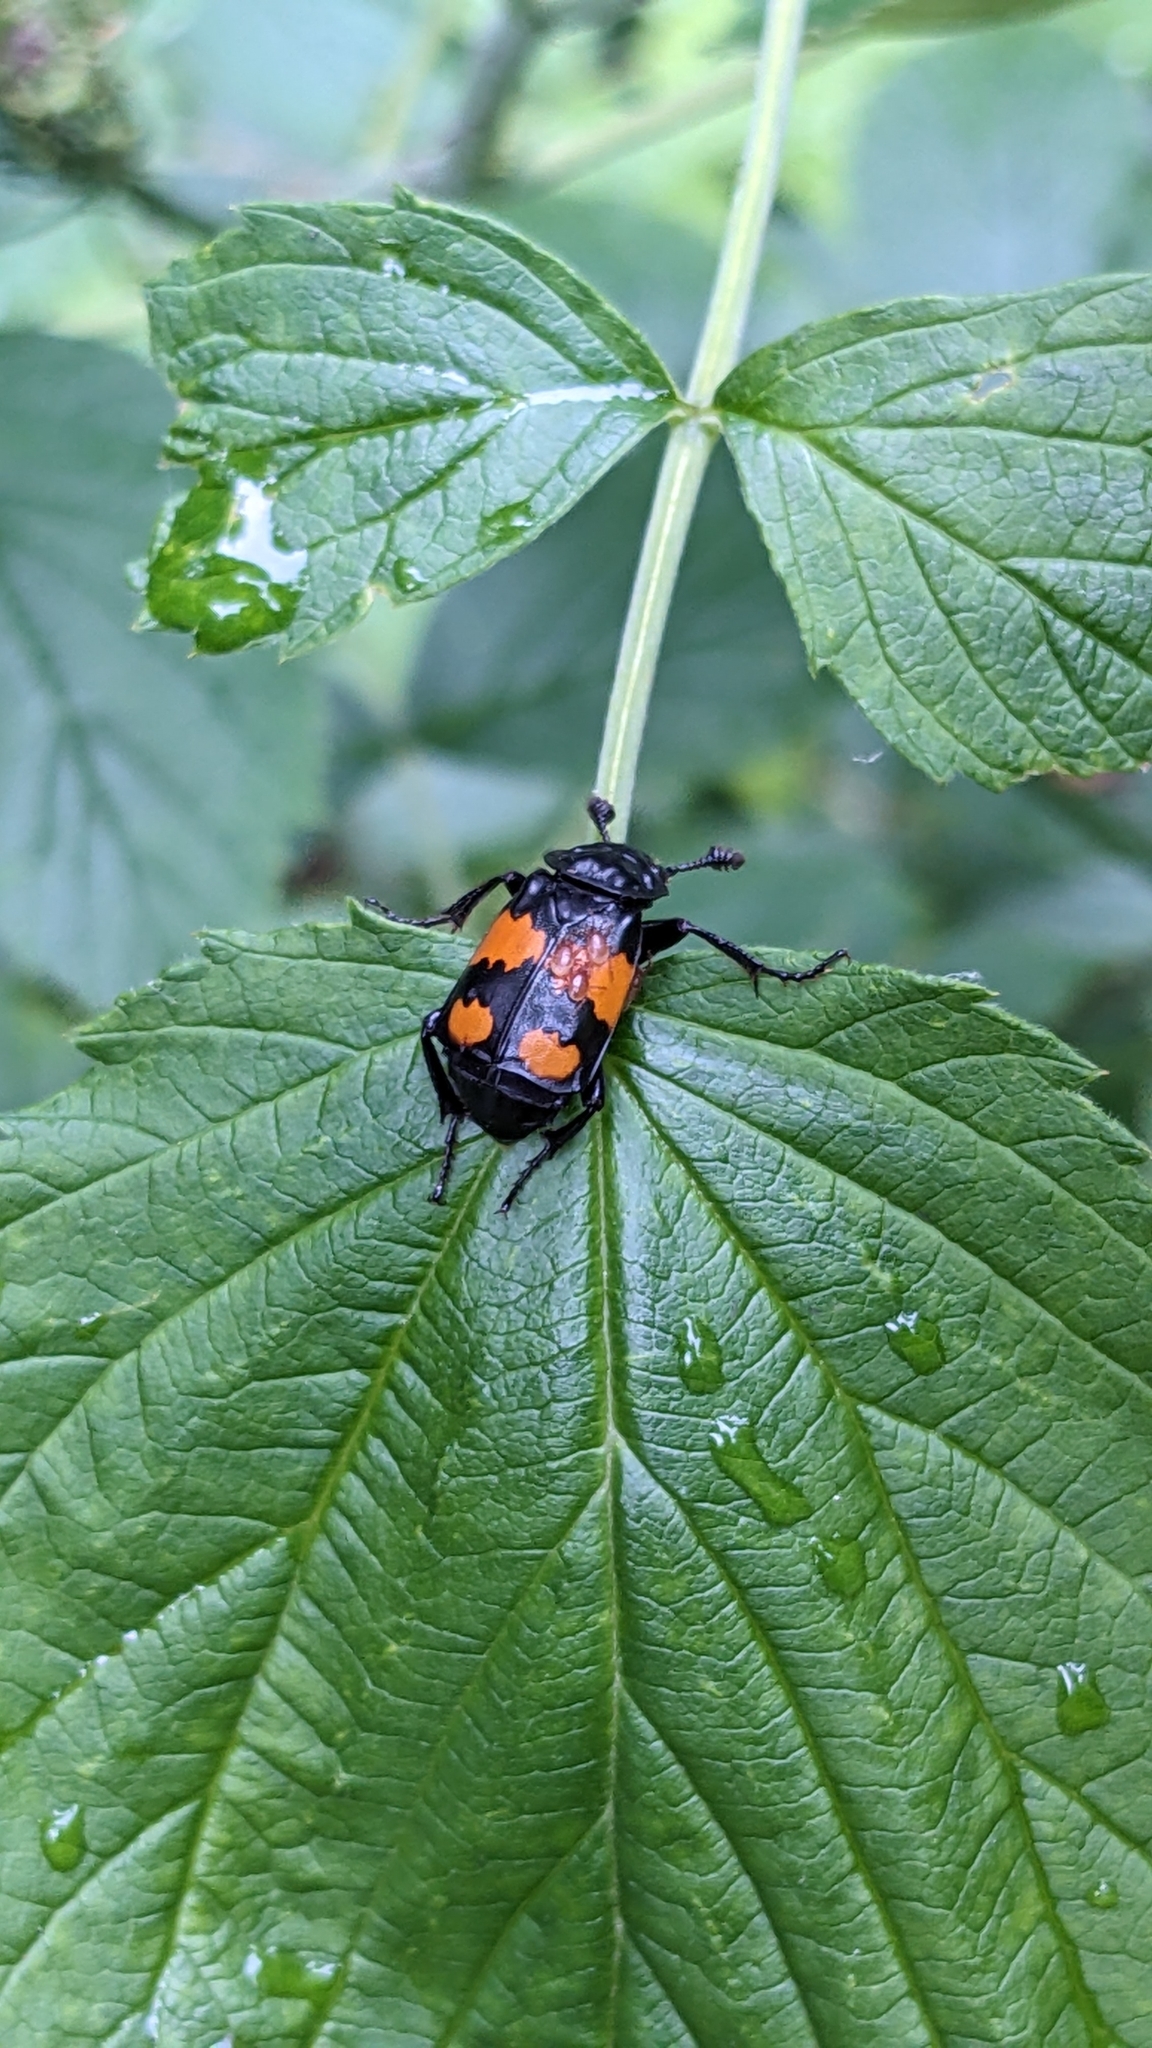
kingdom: Animalia
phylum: Arthropoda
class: Insecta
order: Coleoptera
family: Staphylinidae
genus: Nicrophorus
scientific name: Nicrophorus vespilloides
